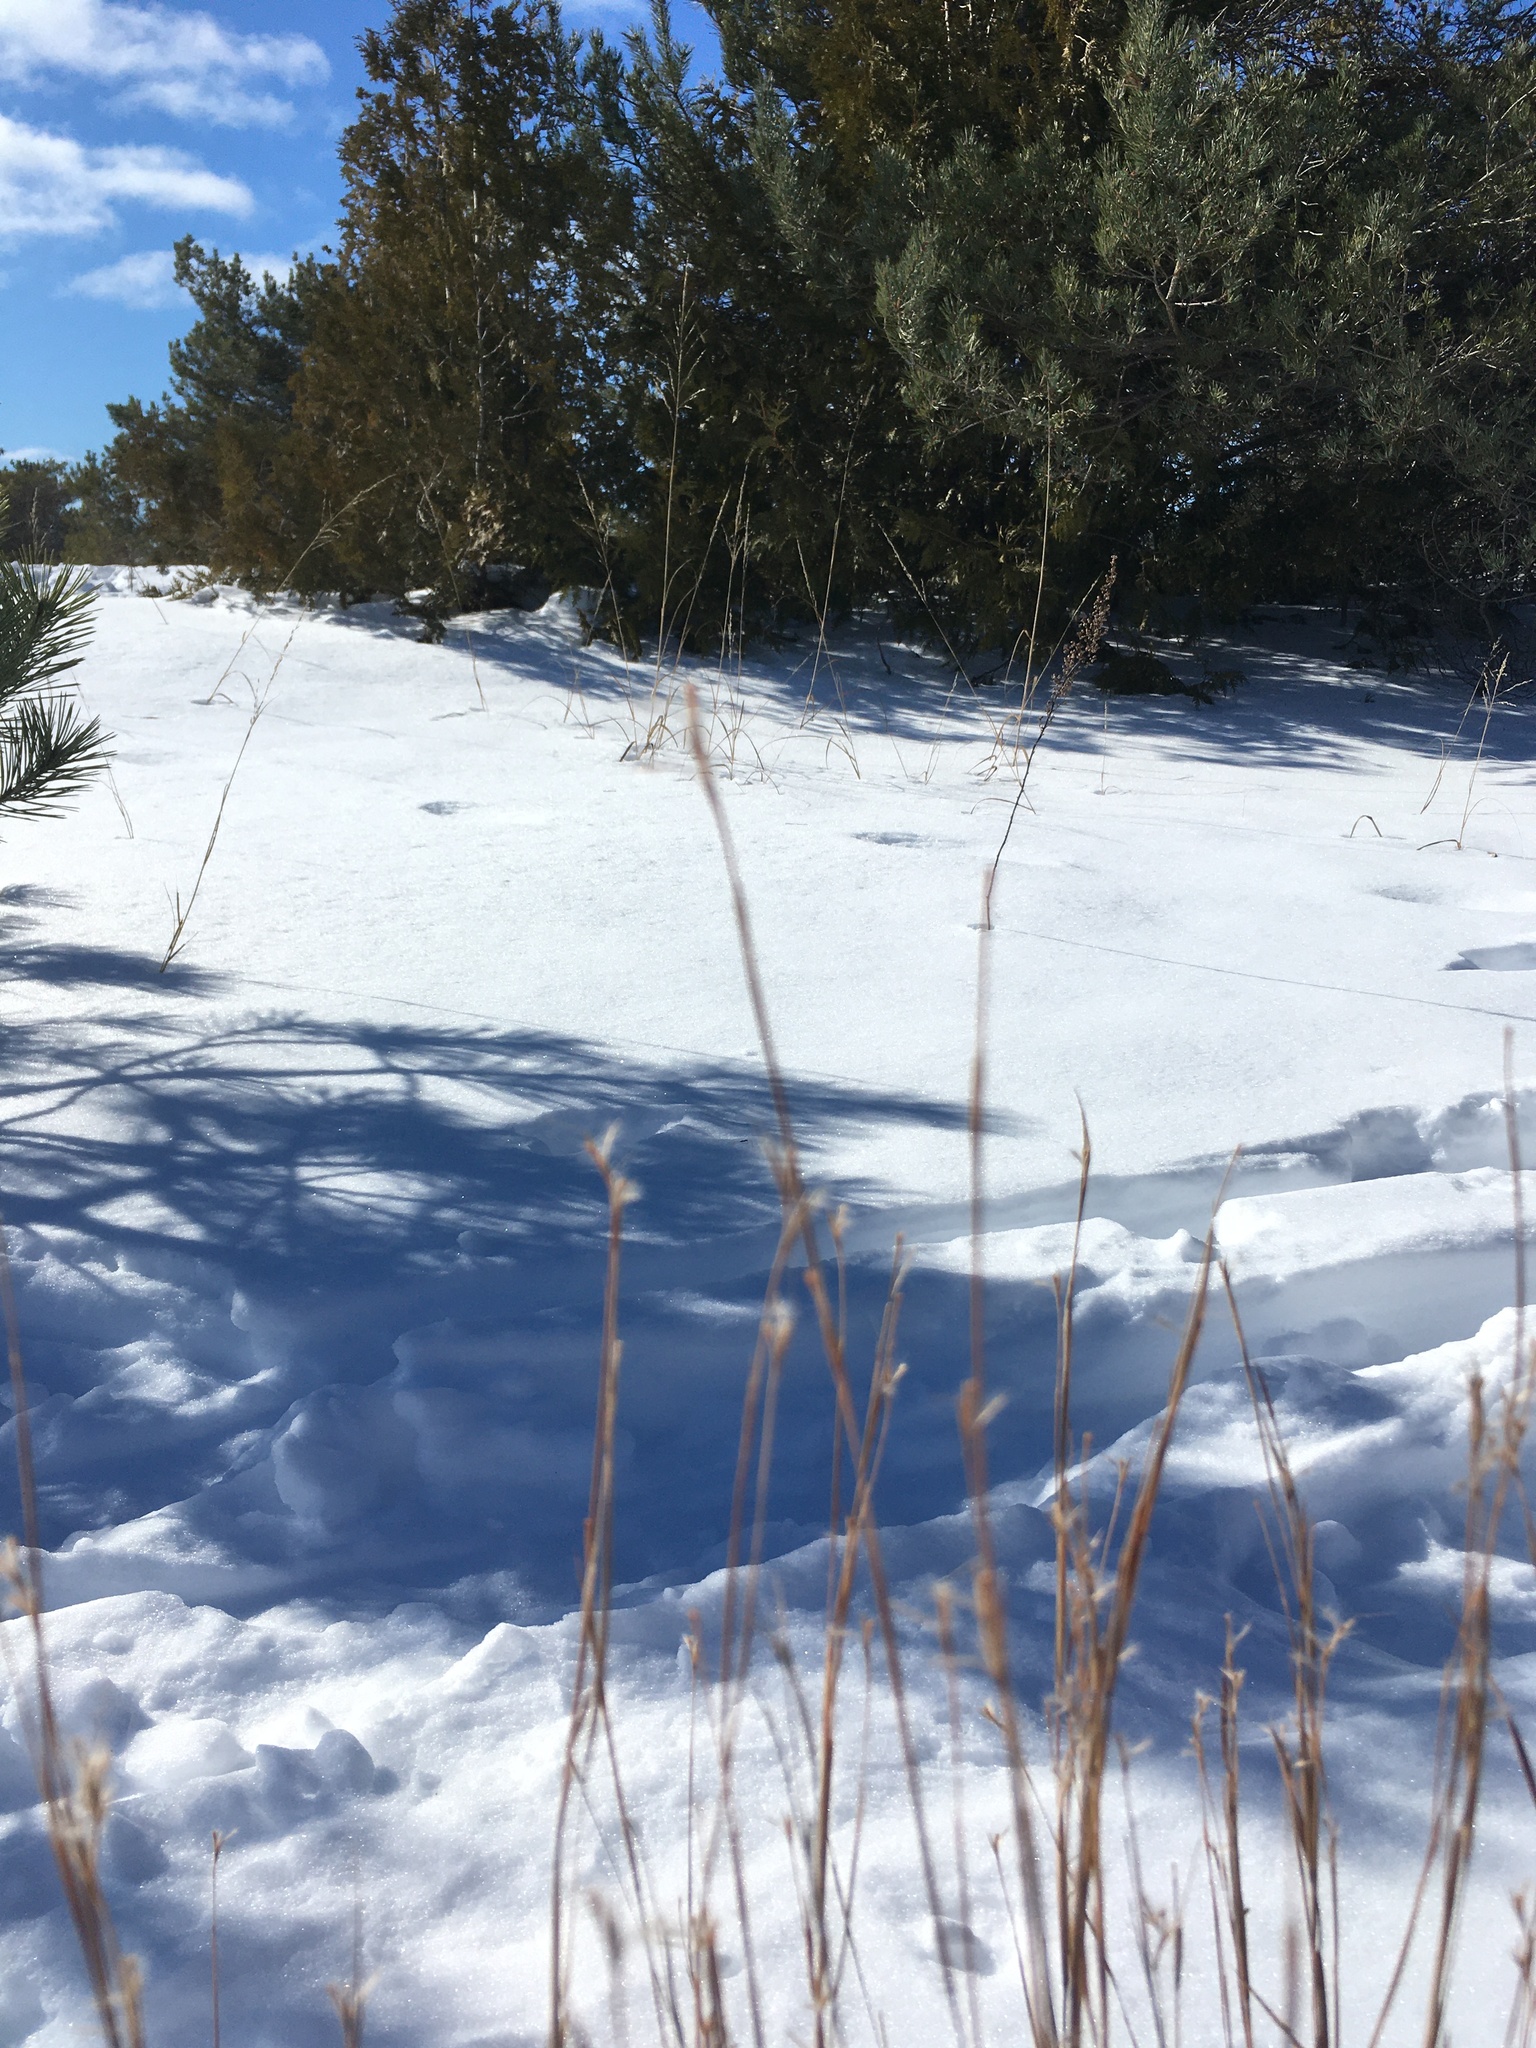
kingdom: Plantae
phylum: Tracheophyta
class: Liliopsida
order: Poales
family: Poaceae
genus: Schizachyrium
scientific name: Schizachyrium scoparium
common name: Little bluestem
